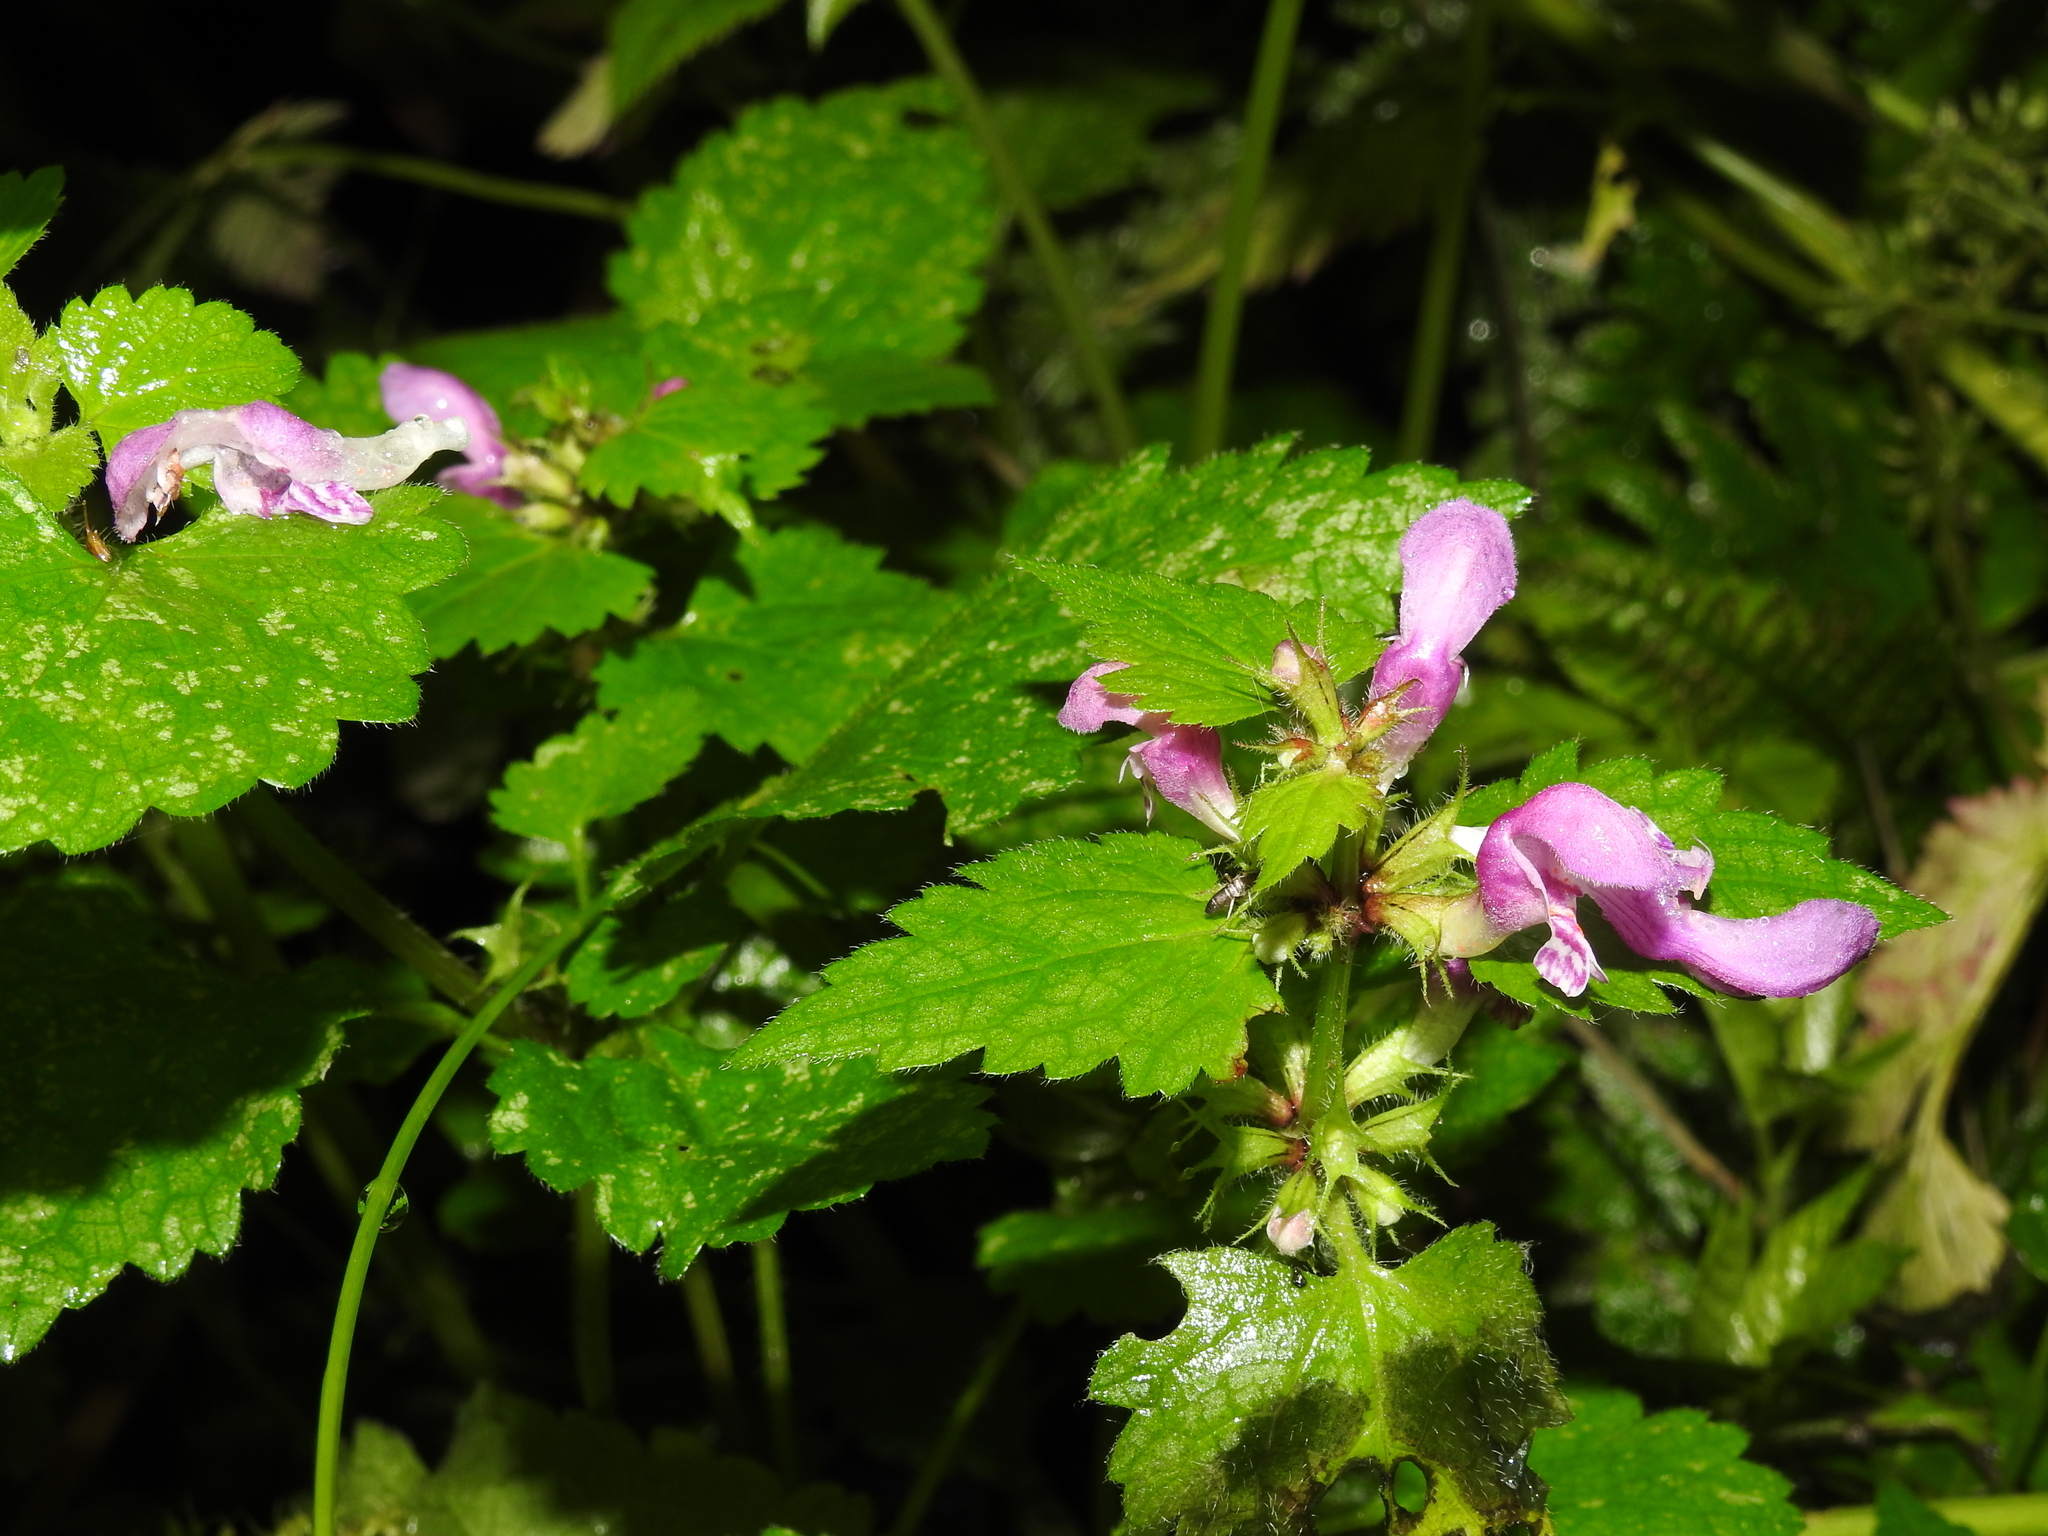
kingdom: Plantae
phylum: Tracheophyta
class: Magnoliopsida
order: Lamiales
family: Lamiaceae
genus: Lamium
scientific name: Lamium maculatum
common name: Spotted dead-nettle
